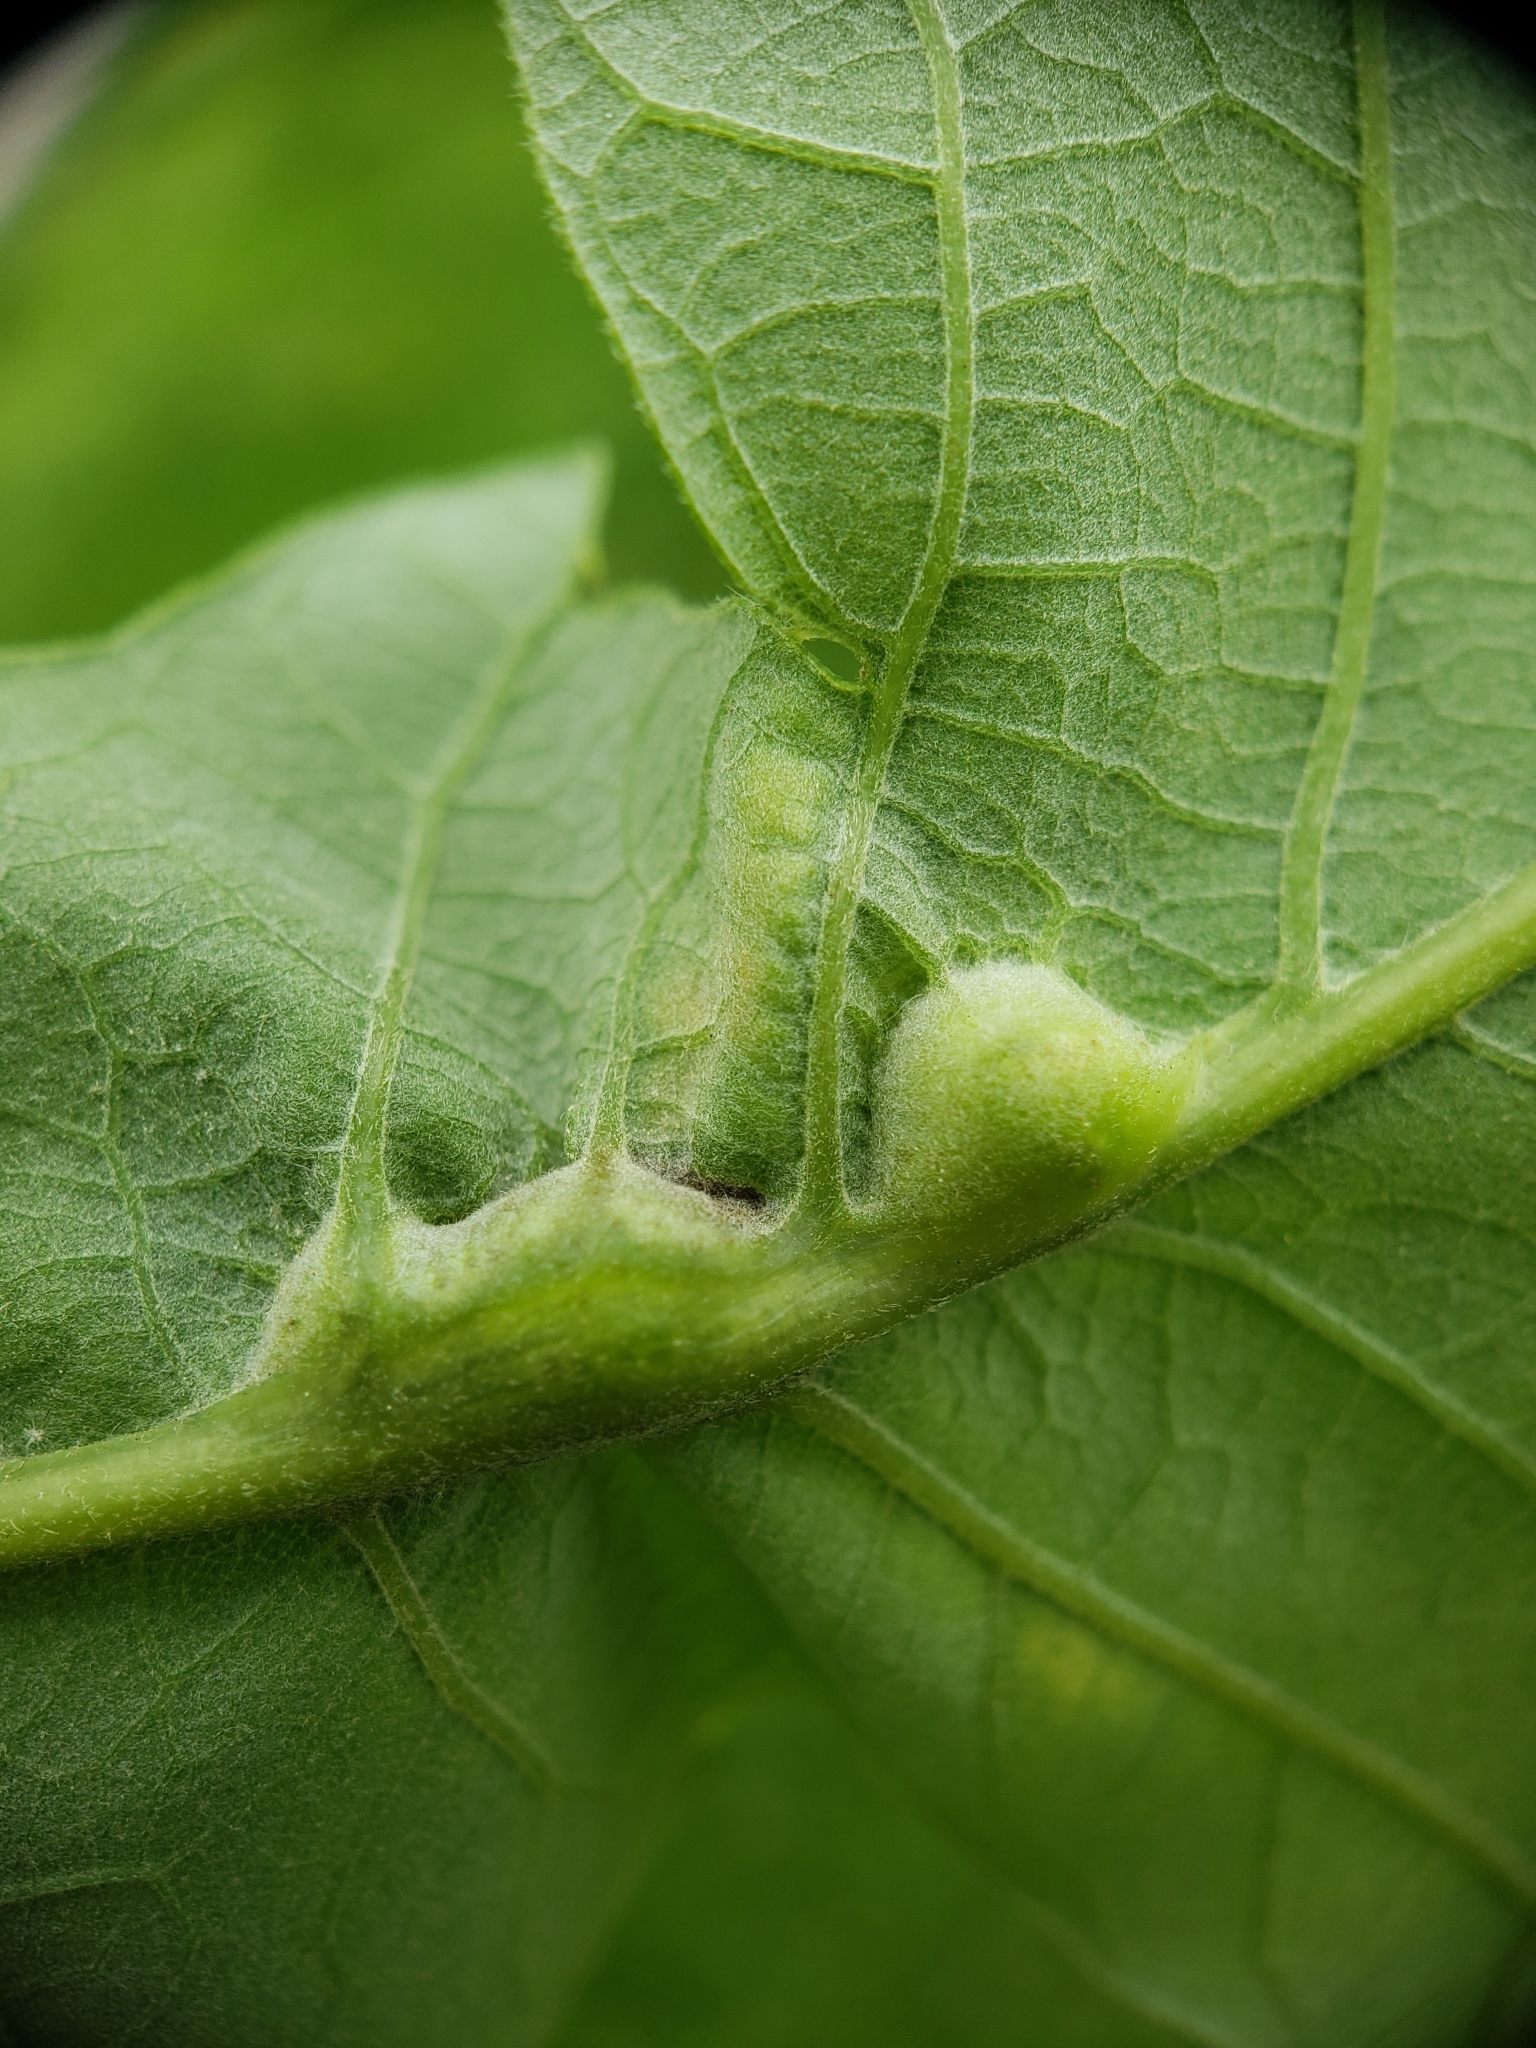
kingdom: Animalia
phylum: Arthropoda
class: Insecta
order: Hymenoptera
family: Cynipidae
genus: Bassettia
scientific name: Bassettia flavipes
